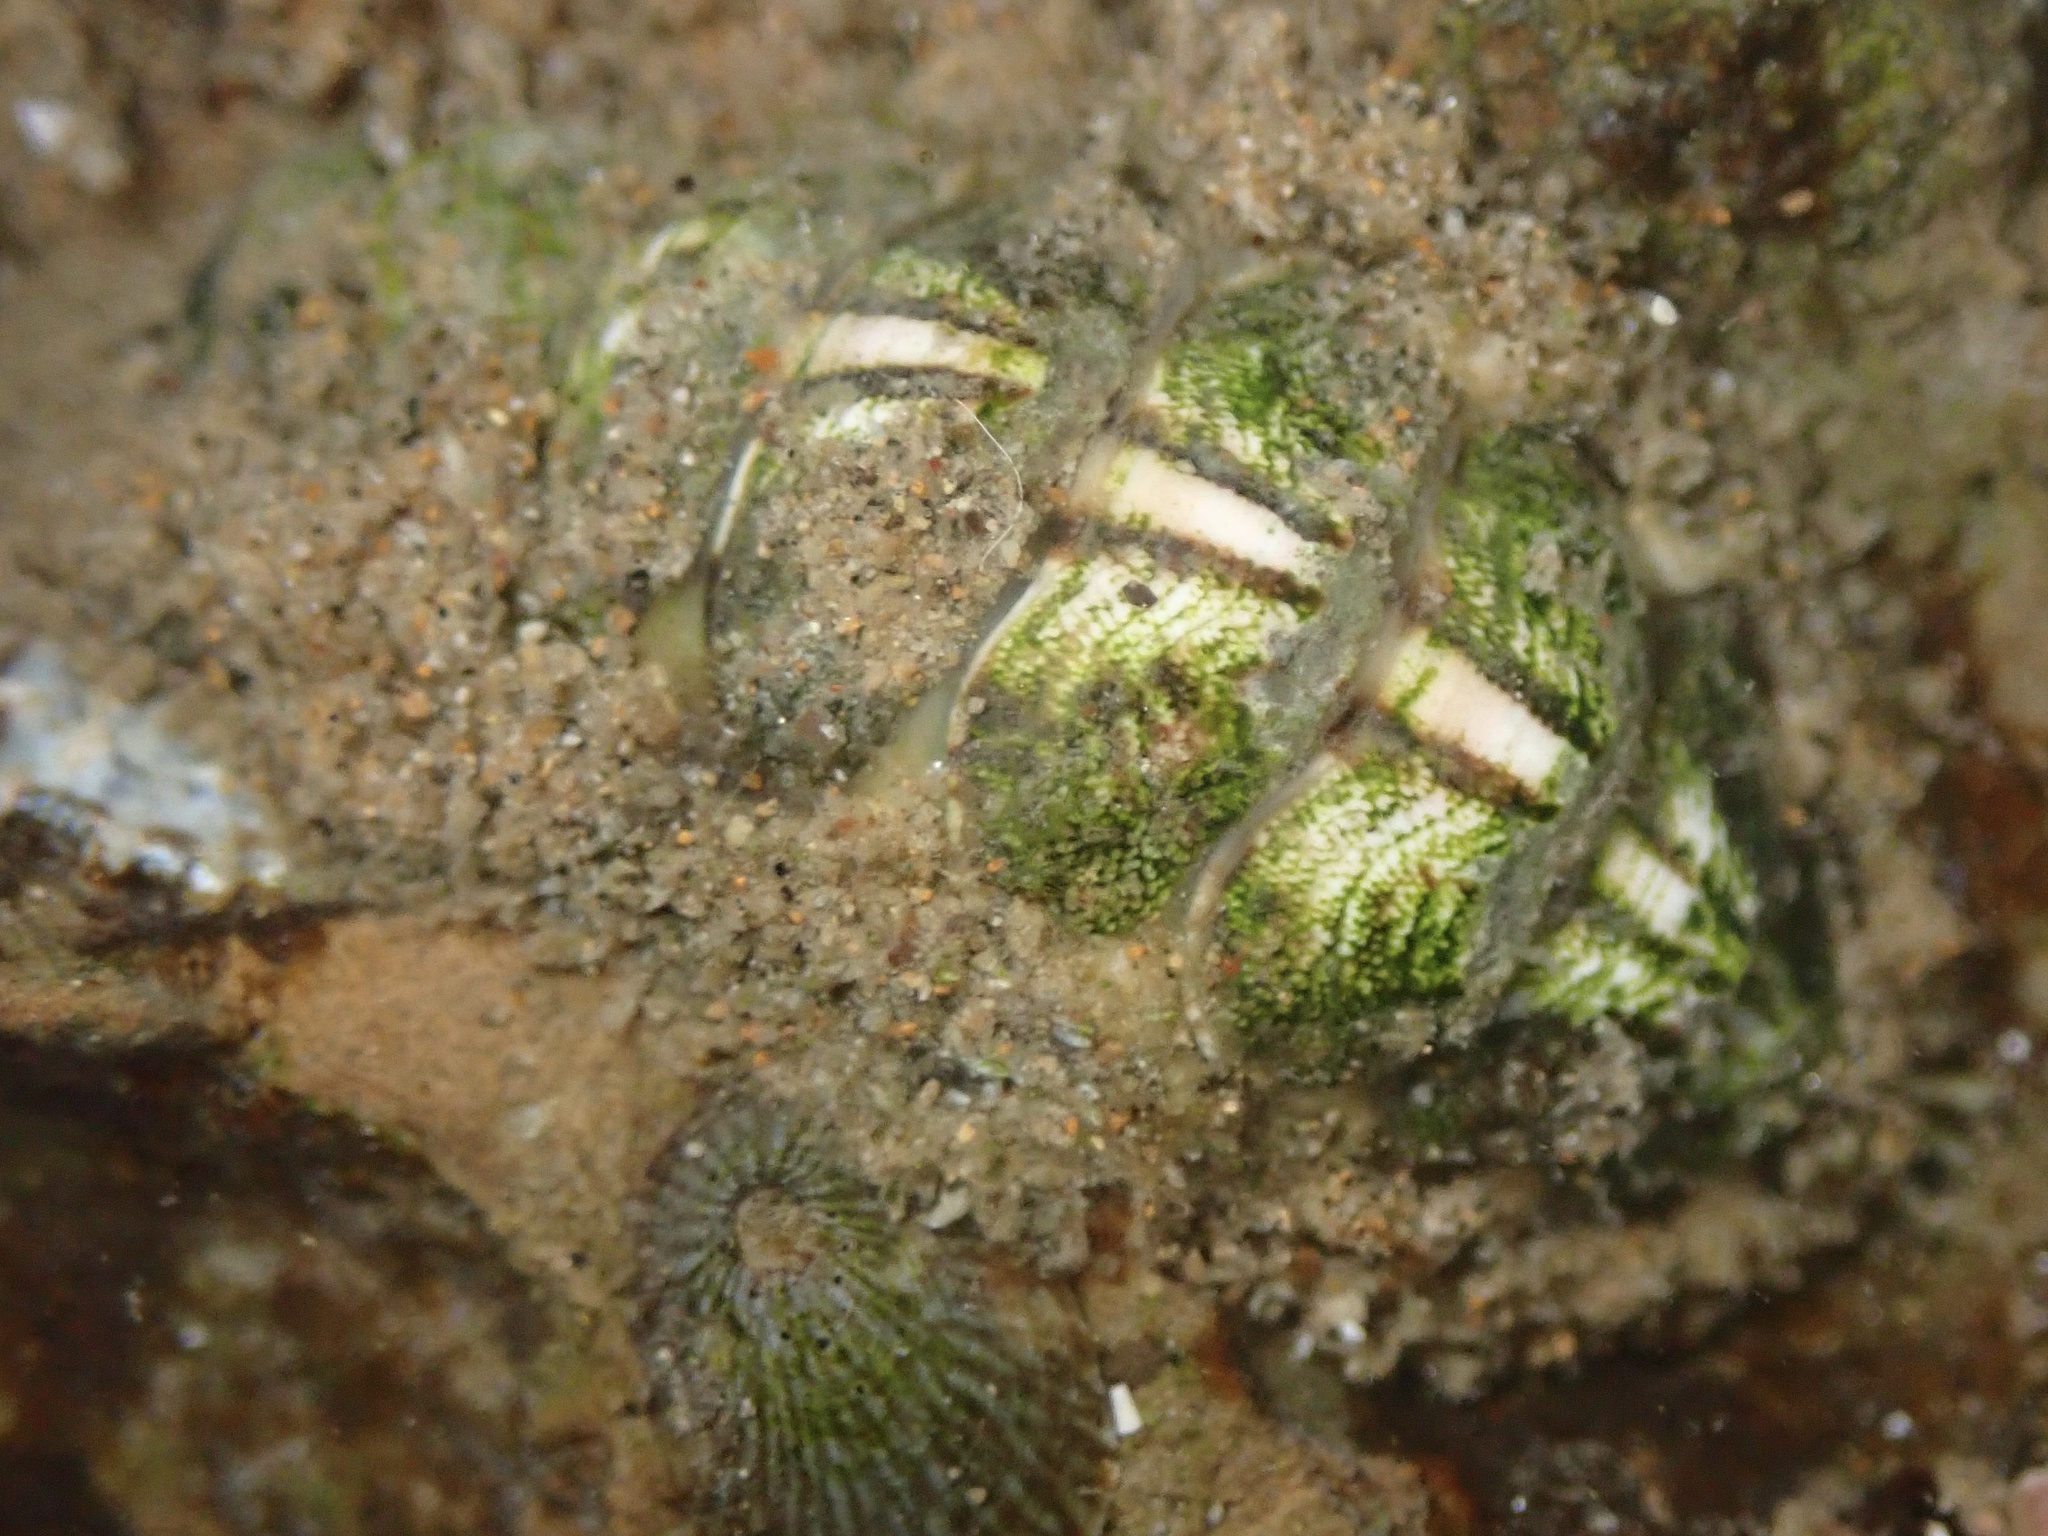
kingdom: Animalia
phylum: Mollusca
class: Polyplacophora
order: Chitonida
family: Tonicellidae
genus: Nuttallina
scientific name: Nuttallina californica
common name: California nuttall chiton
